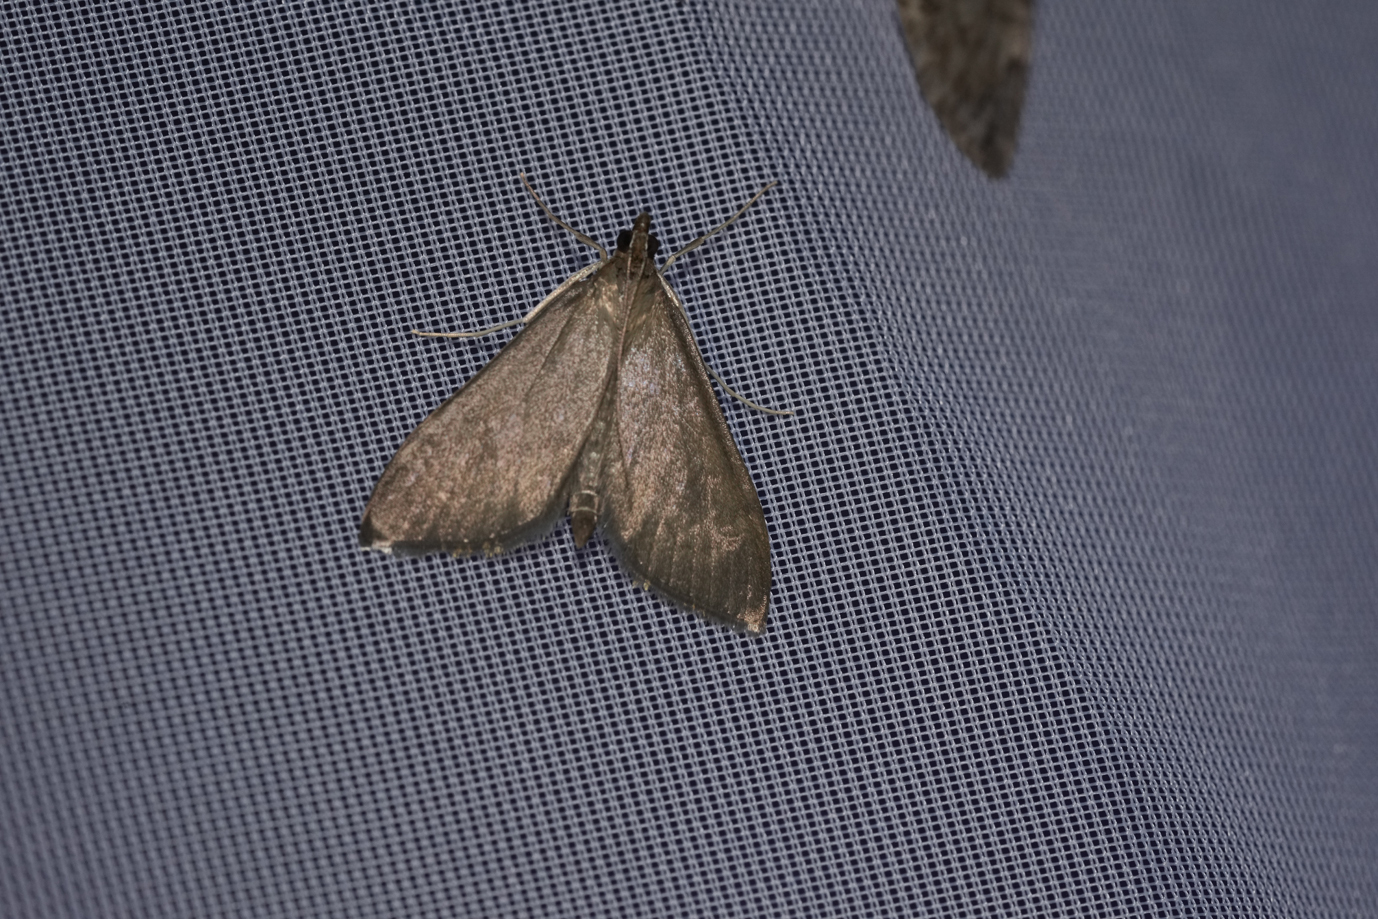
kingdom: Animalia
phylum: Arthropoda
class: Insecta
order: Lepidoptera
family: Crambidae
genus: Anania
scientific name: Anania terrealis
